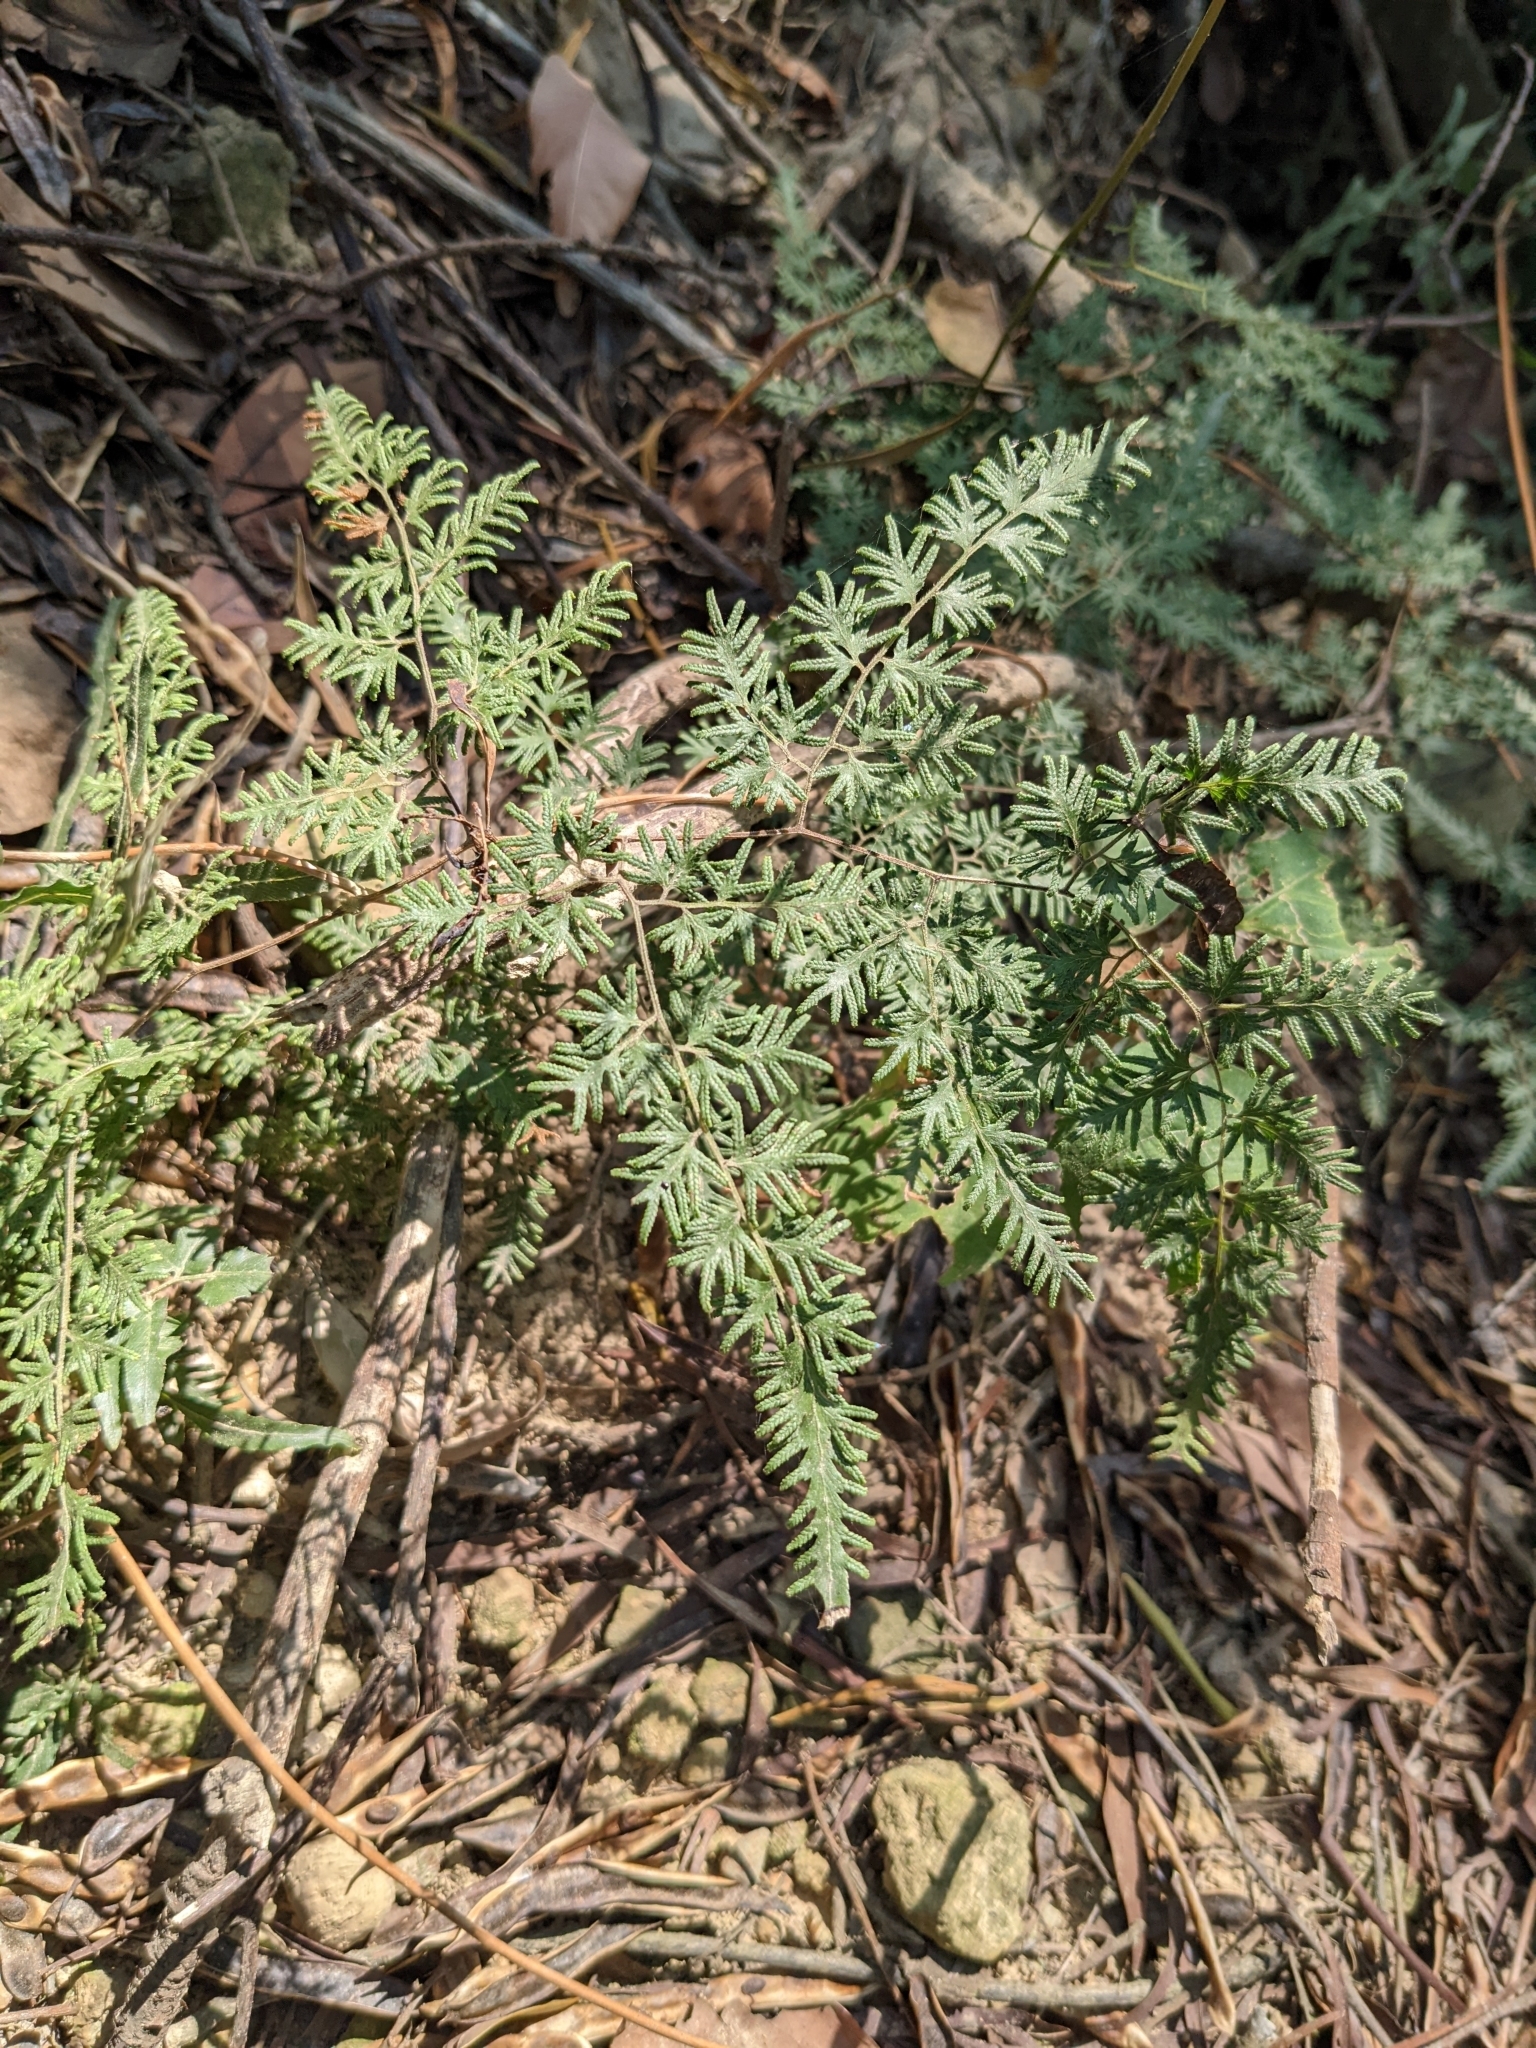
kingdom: Plantae
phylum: Tracheophyta
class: Polypodiopsida
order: Schizaeales
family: Lygodiaceae
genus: Lygodium
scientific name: Lygodium japonicum
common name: Japanese climbing fern
